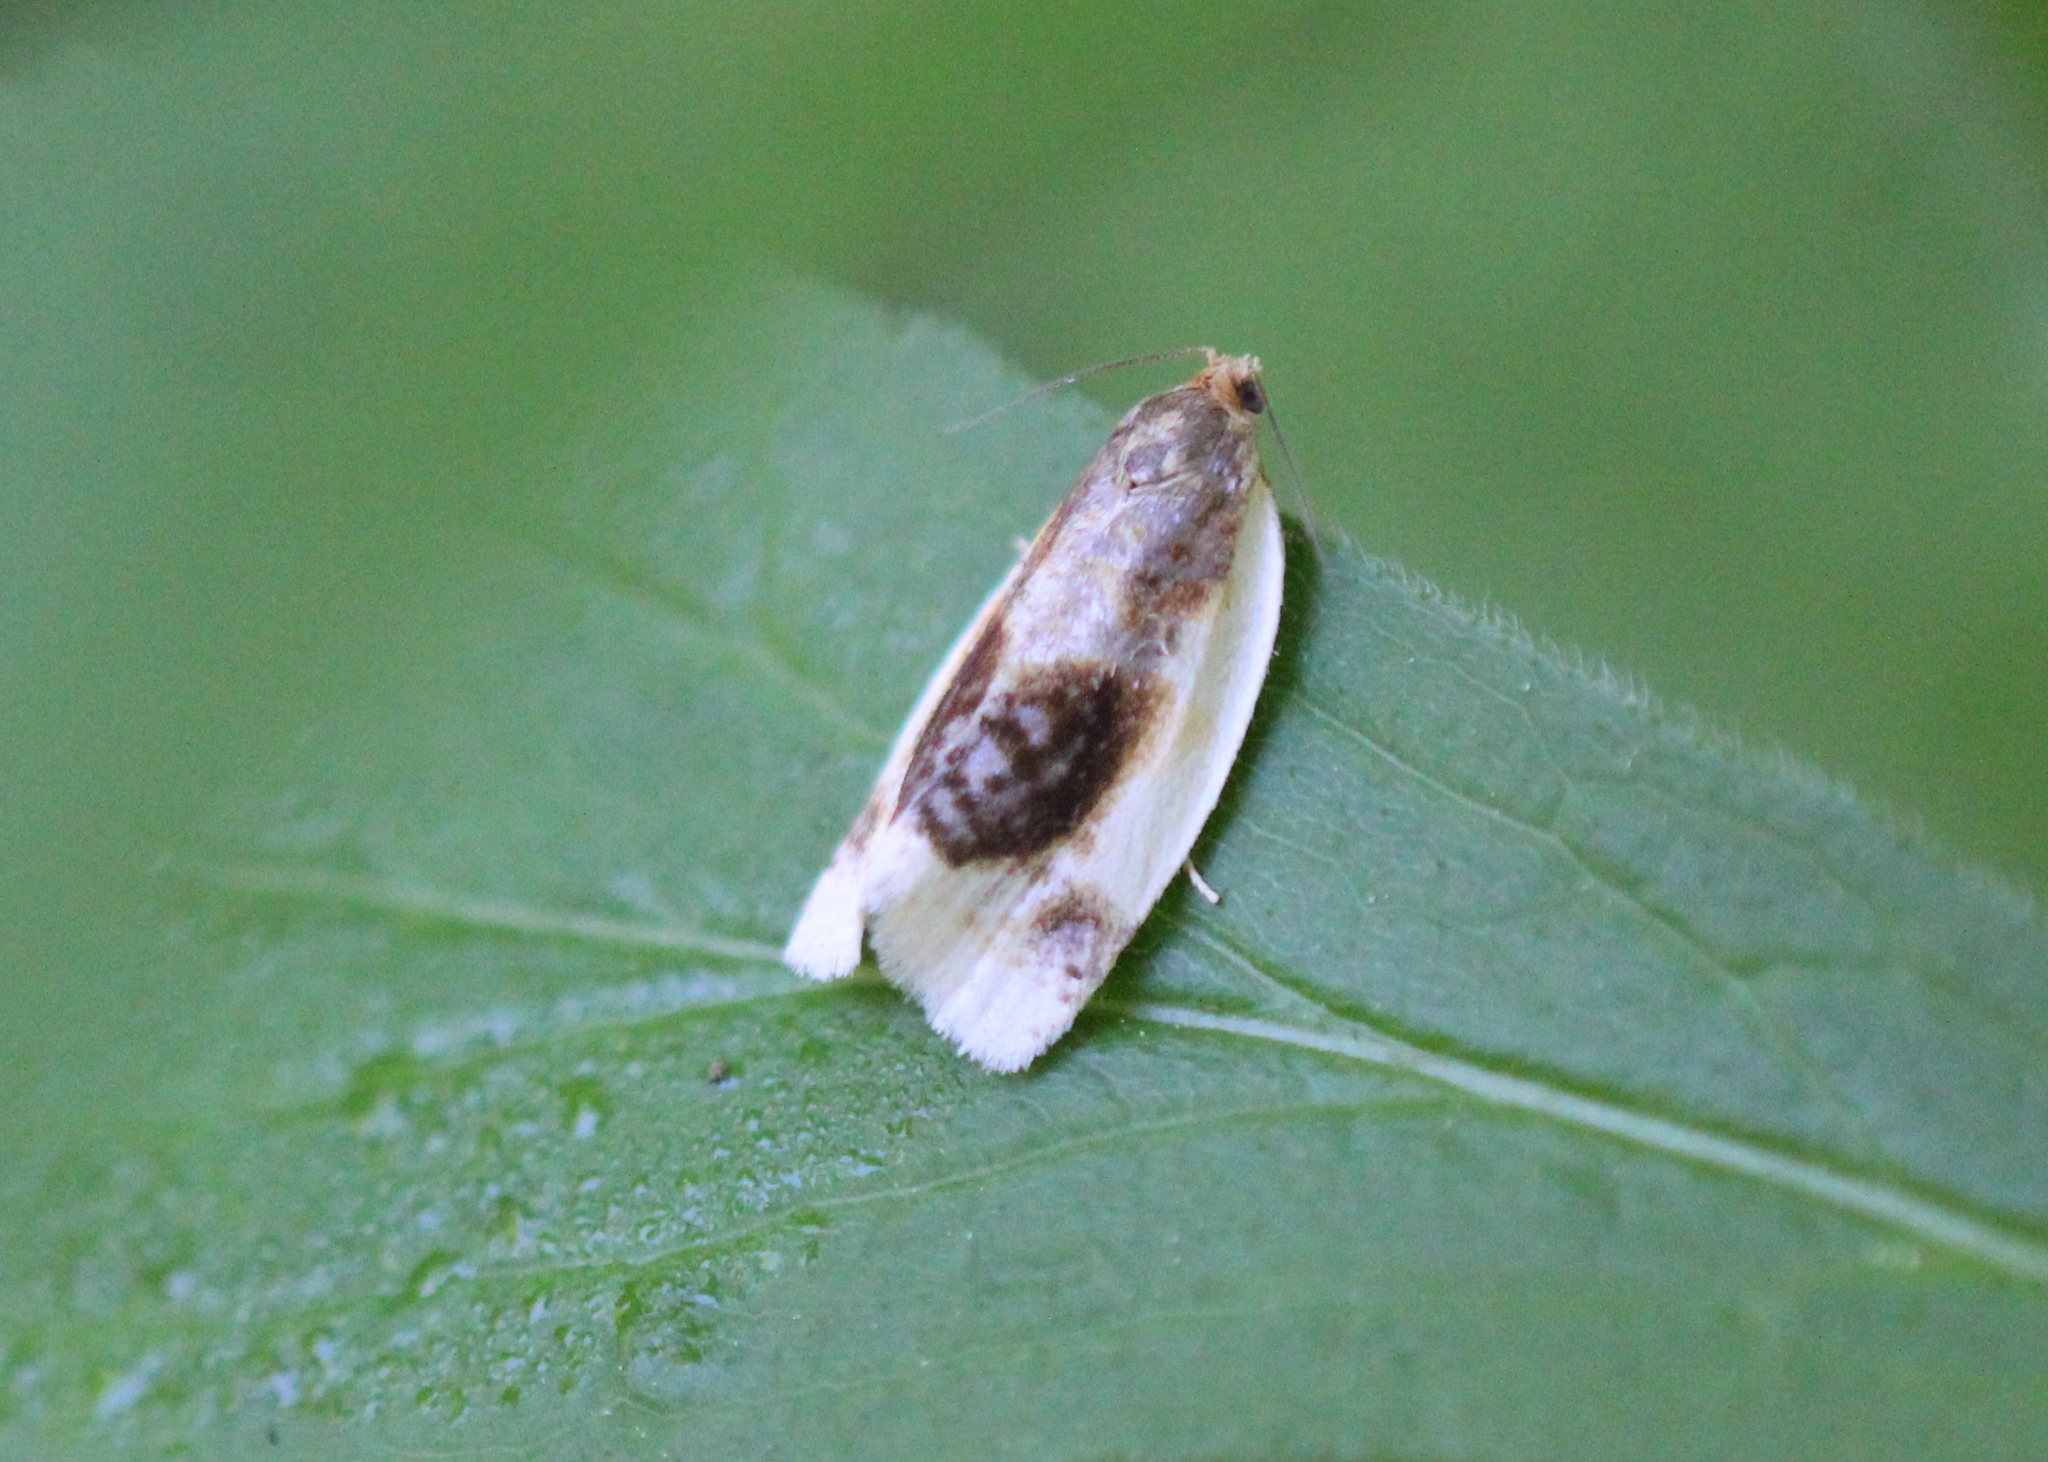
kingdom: Animalia
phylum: Arthropoda
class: Insecta
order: Lepidoptera
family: Tortricidae
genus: Clepsis
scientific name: Clepsis melaleucanus
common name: American apple tortrix
